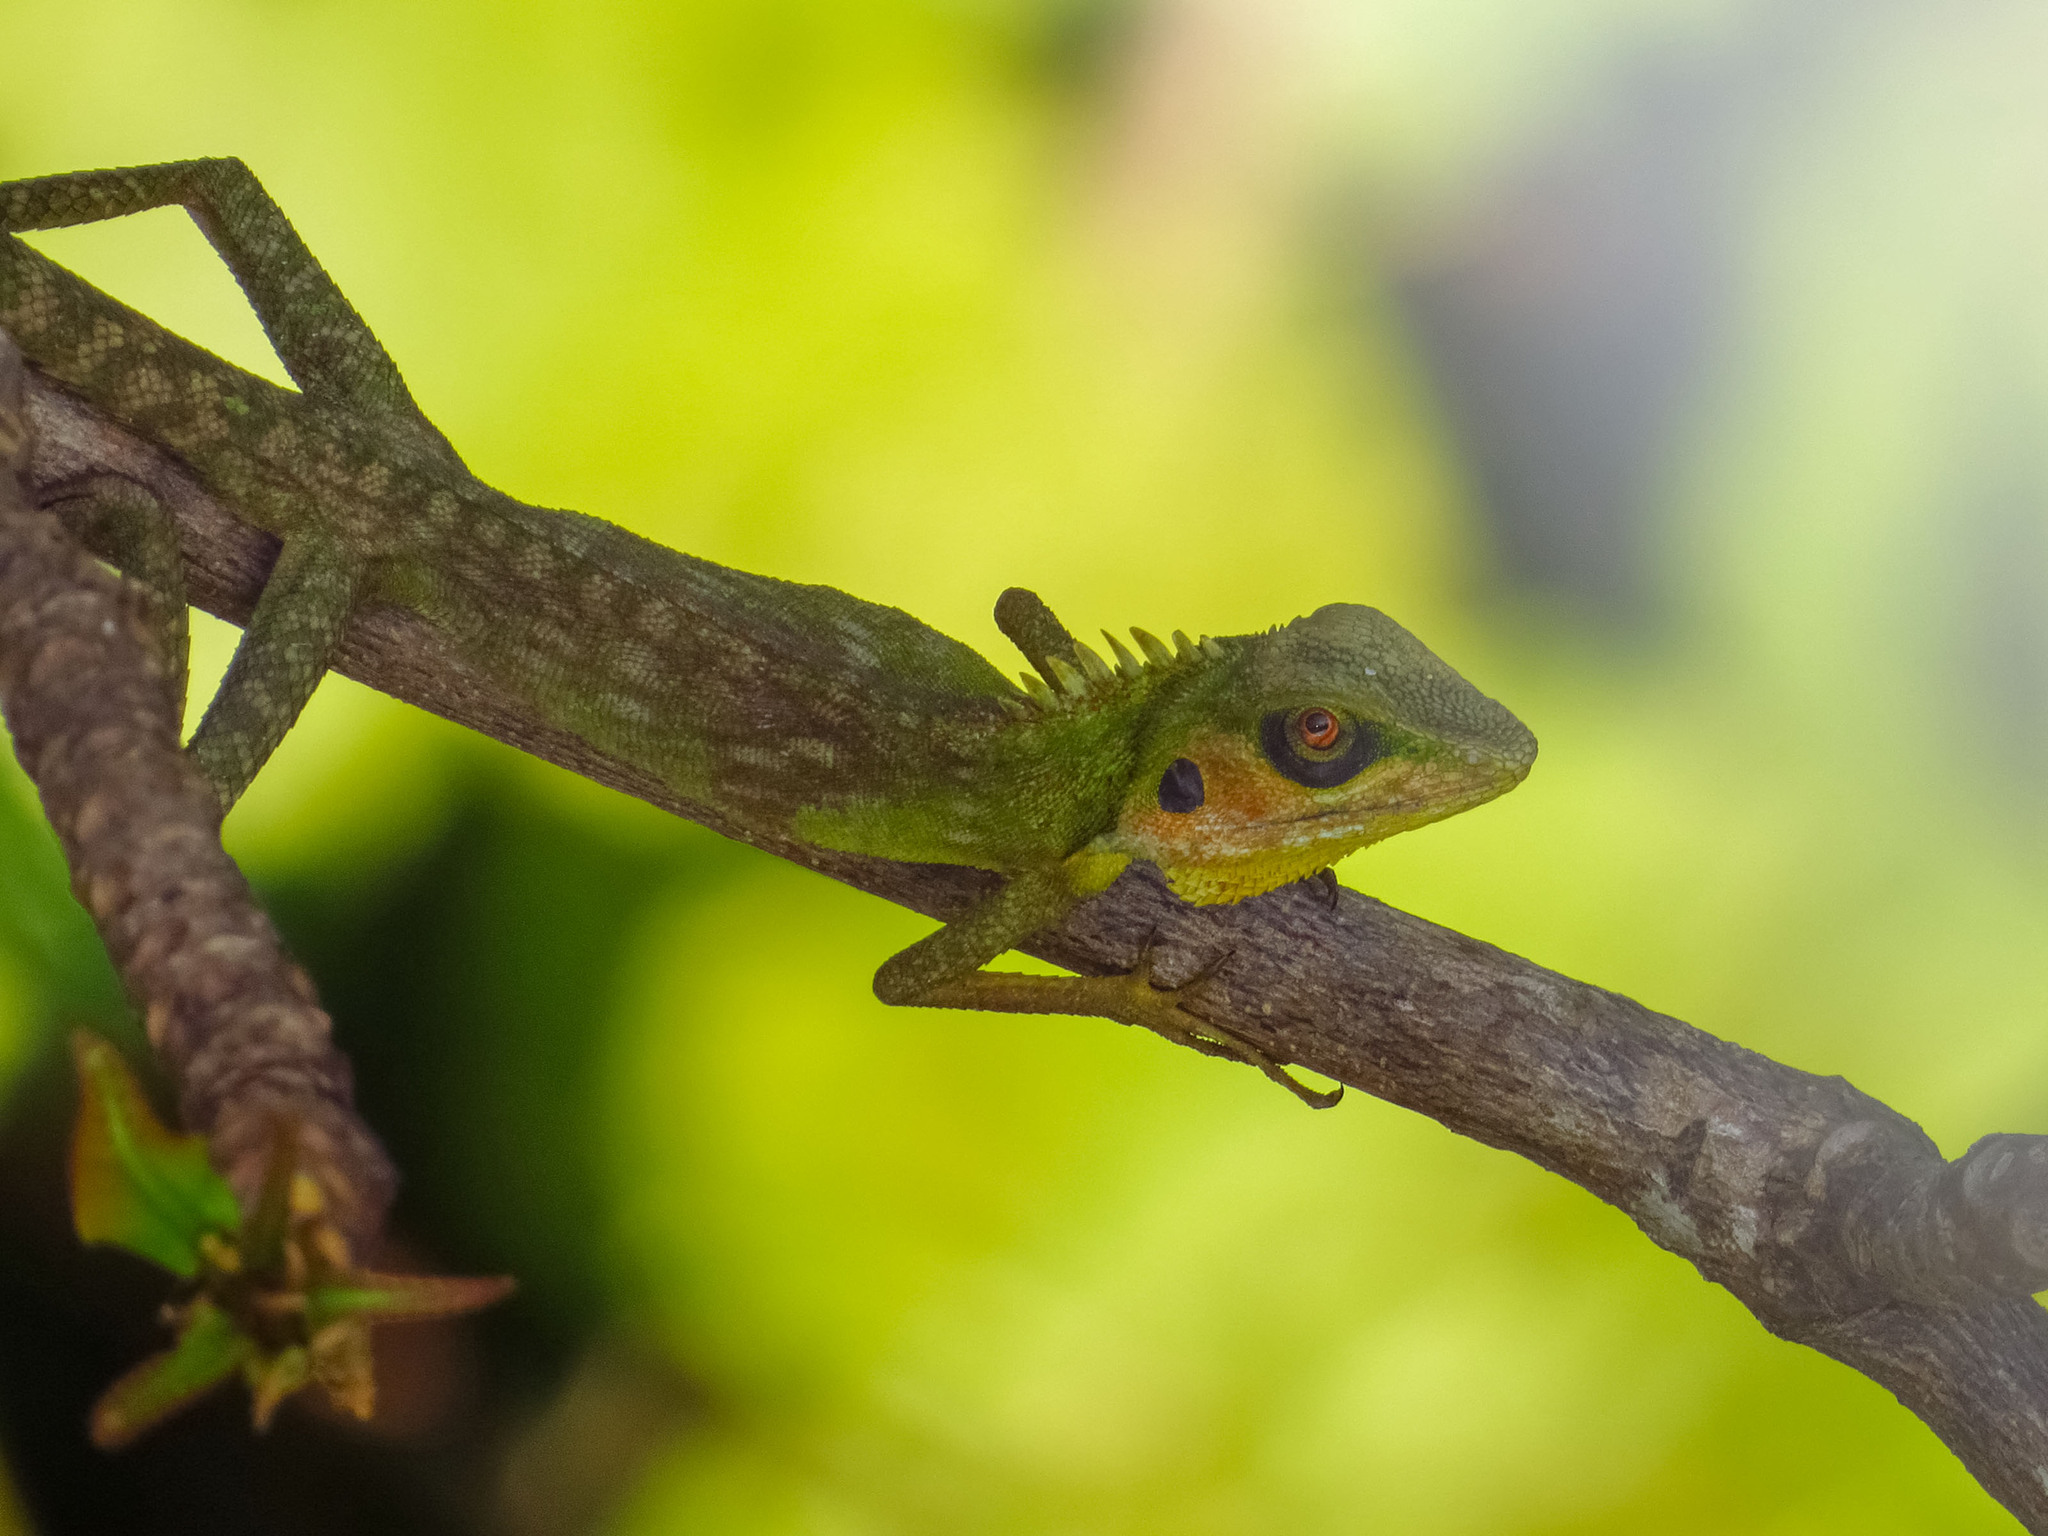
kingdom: Animalia
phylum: Chordata
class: Squamata
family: Agamidae
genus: Bronchocela
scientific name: Bronchocela cristatella
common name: Green crested lizard
